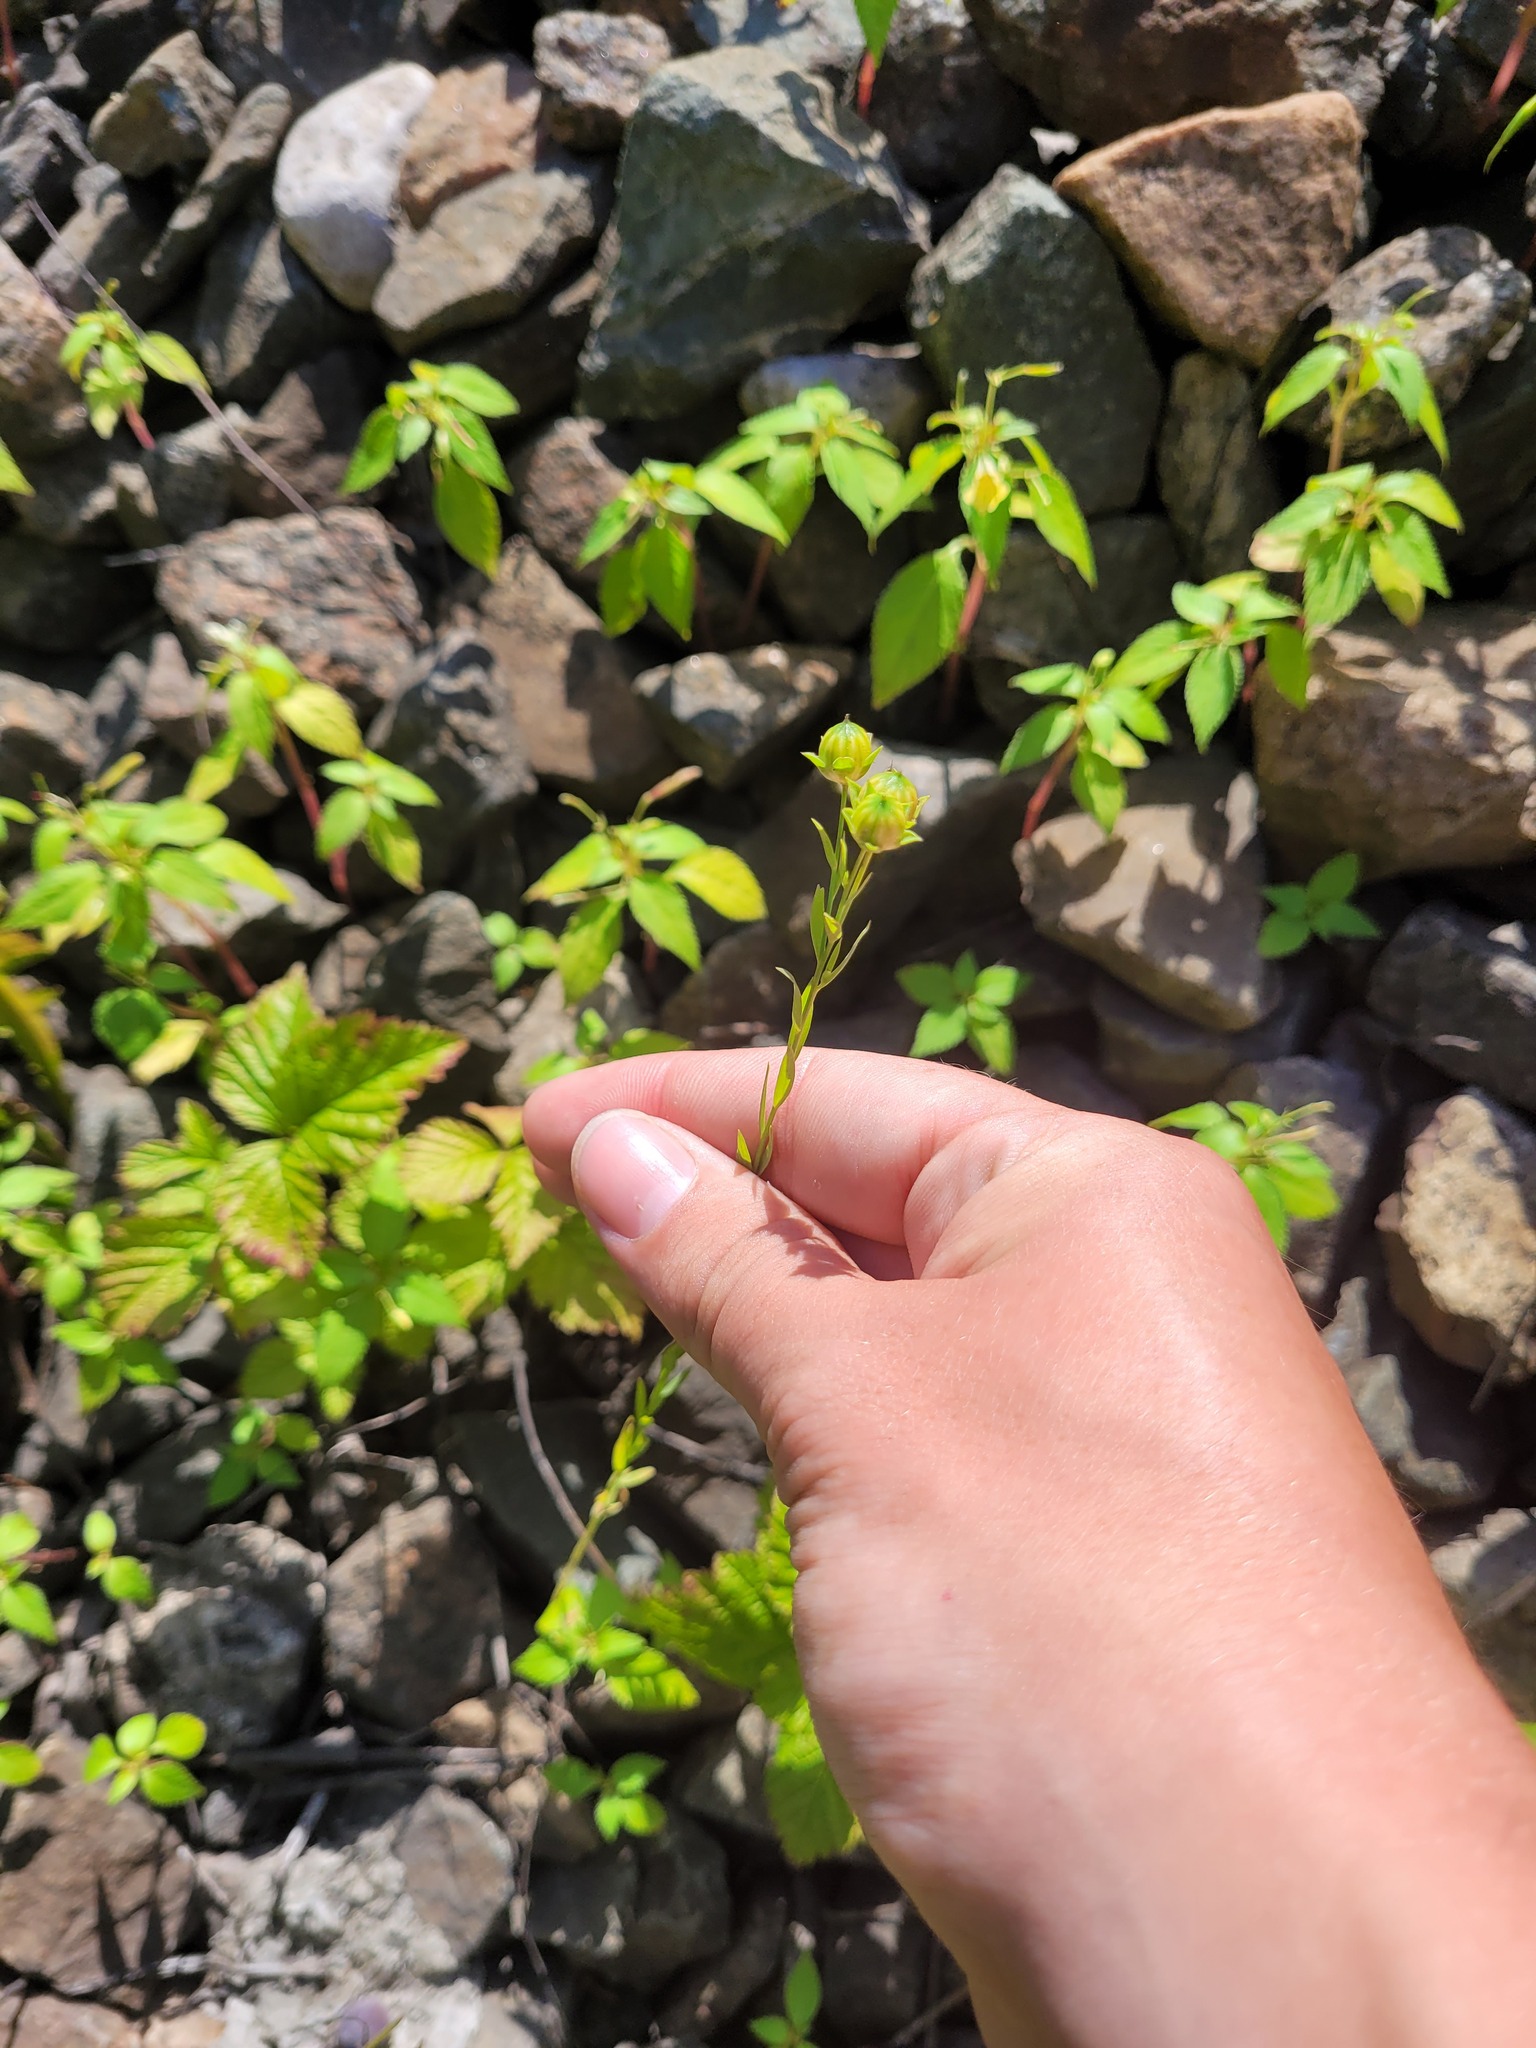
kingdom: Plantae
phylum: Tracheophyta
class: Magnoliopsida
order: Malpighiales
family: Linaceae
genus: Linum
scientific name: Linum usitatissimum
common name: Flax
